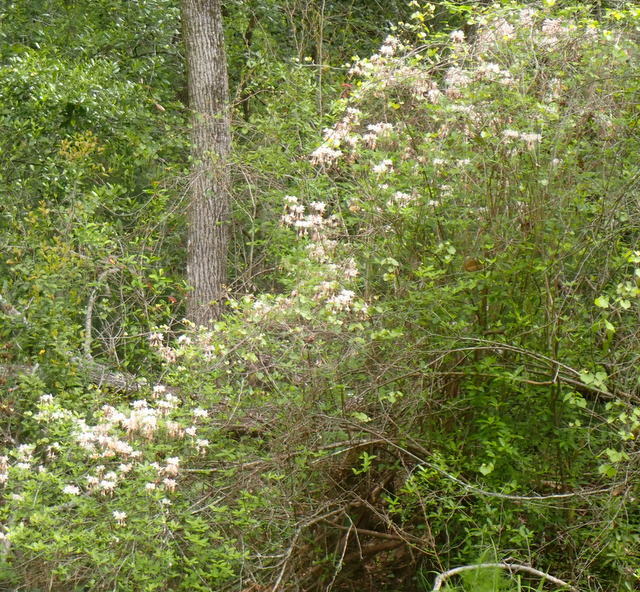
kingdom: Plantae
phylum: Tracheophyta
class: Magnoliopsida
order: Ericales
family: Ericaceae
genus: Rhododendron
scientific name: Rhododendron canescens
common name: Mountain azalea
